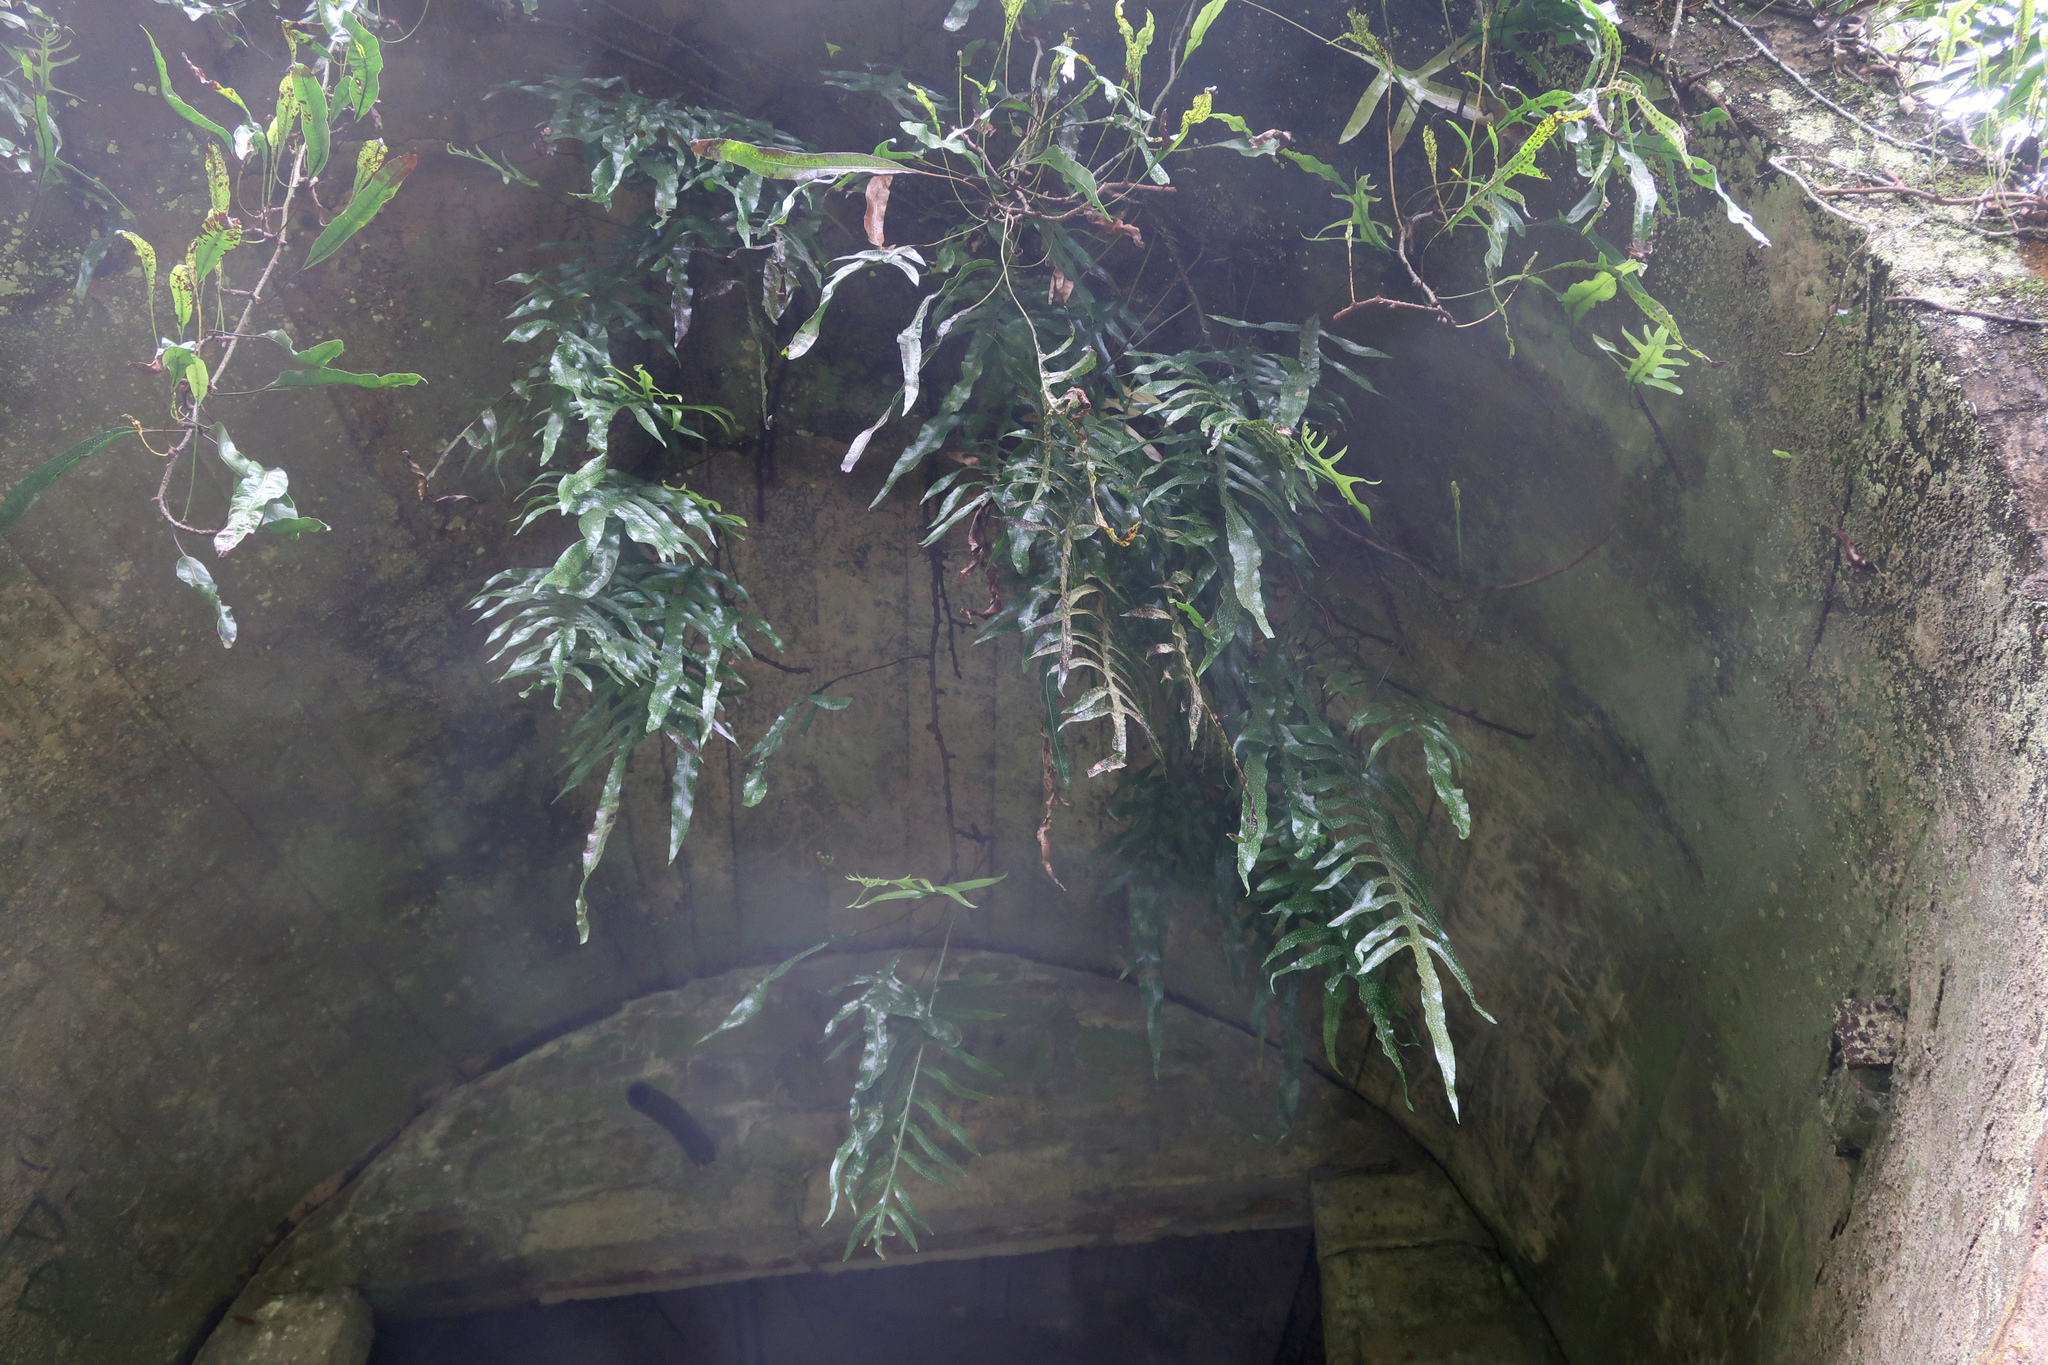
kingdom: Plantae
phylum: Tracheophyta
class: Polypodiopsida
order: Polypodiales
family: Polypodiaceae
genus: Lecanopteris
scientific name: Lecanopteris pustulata
